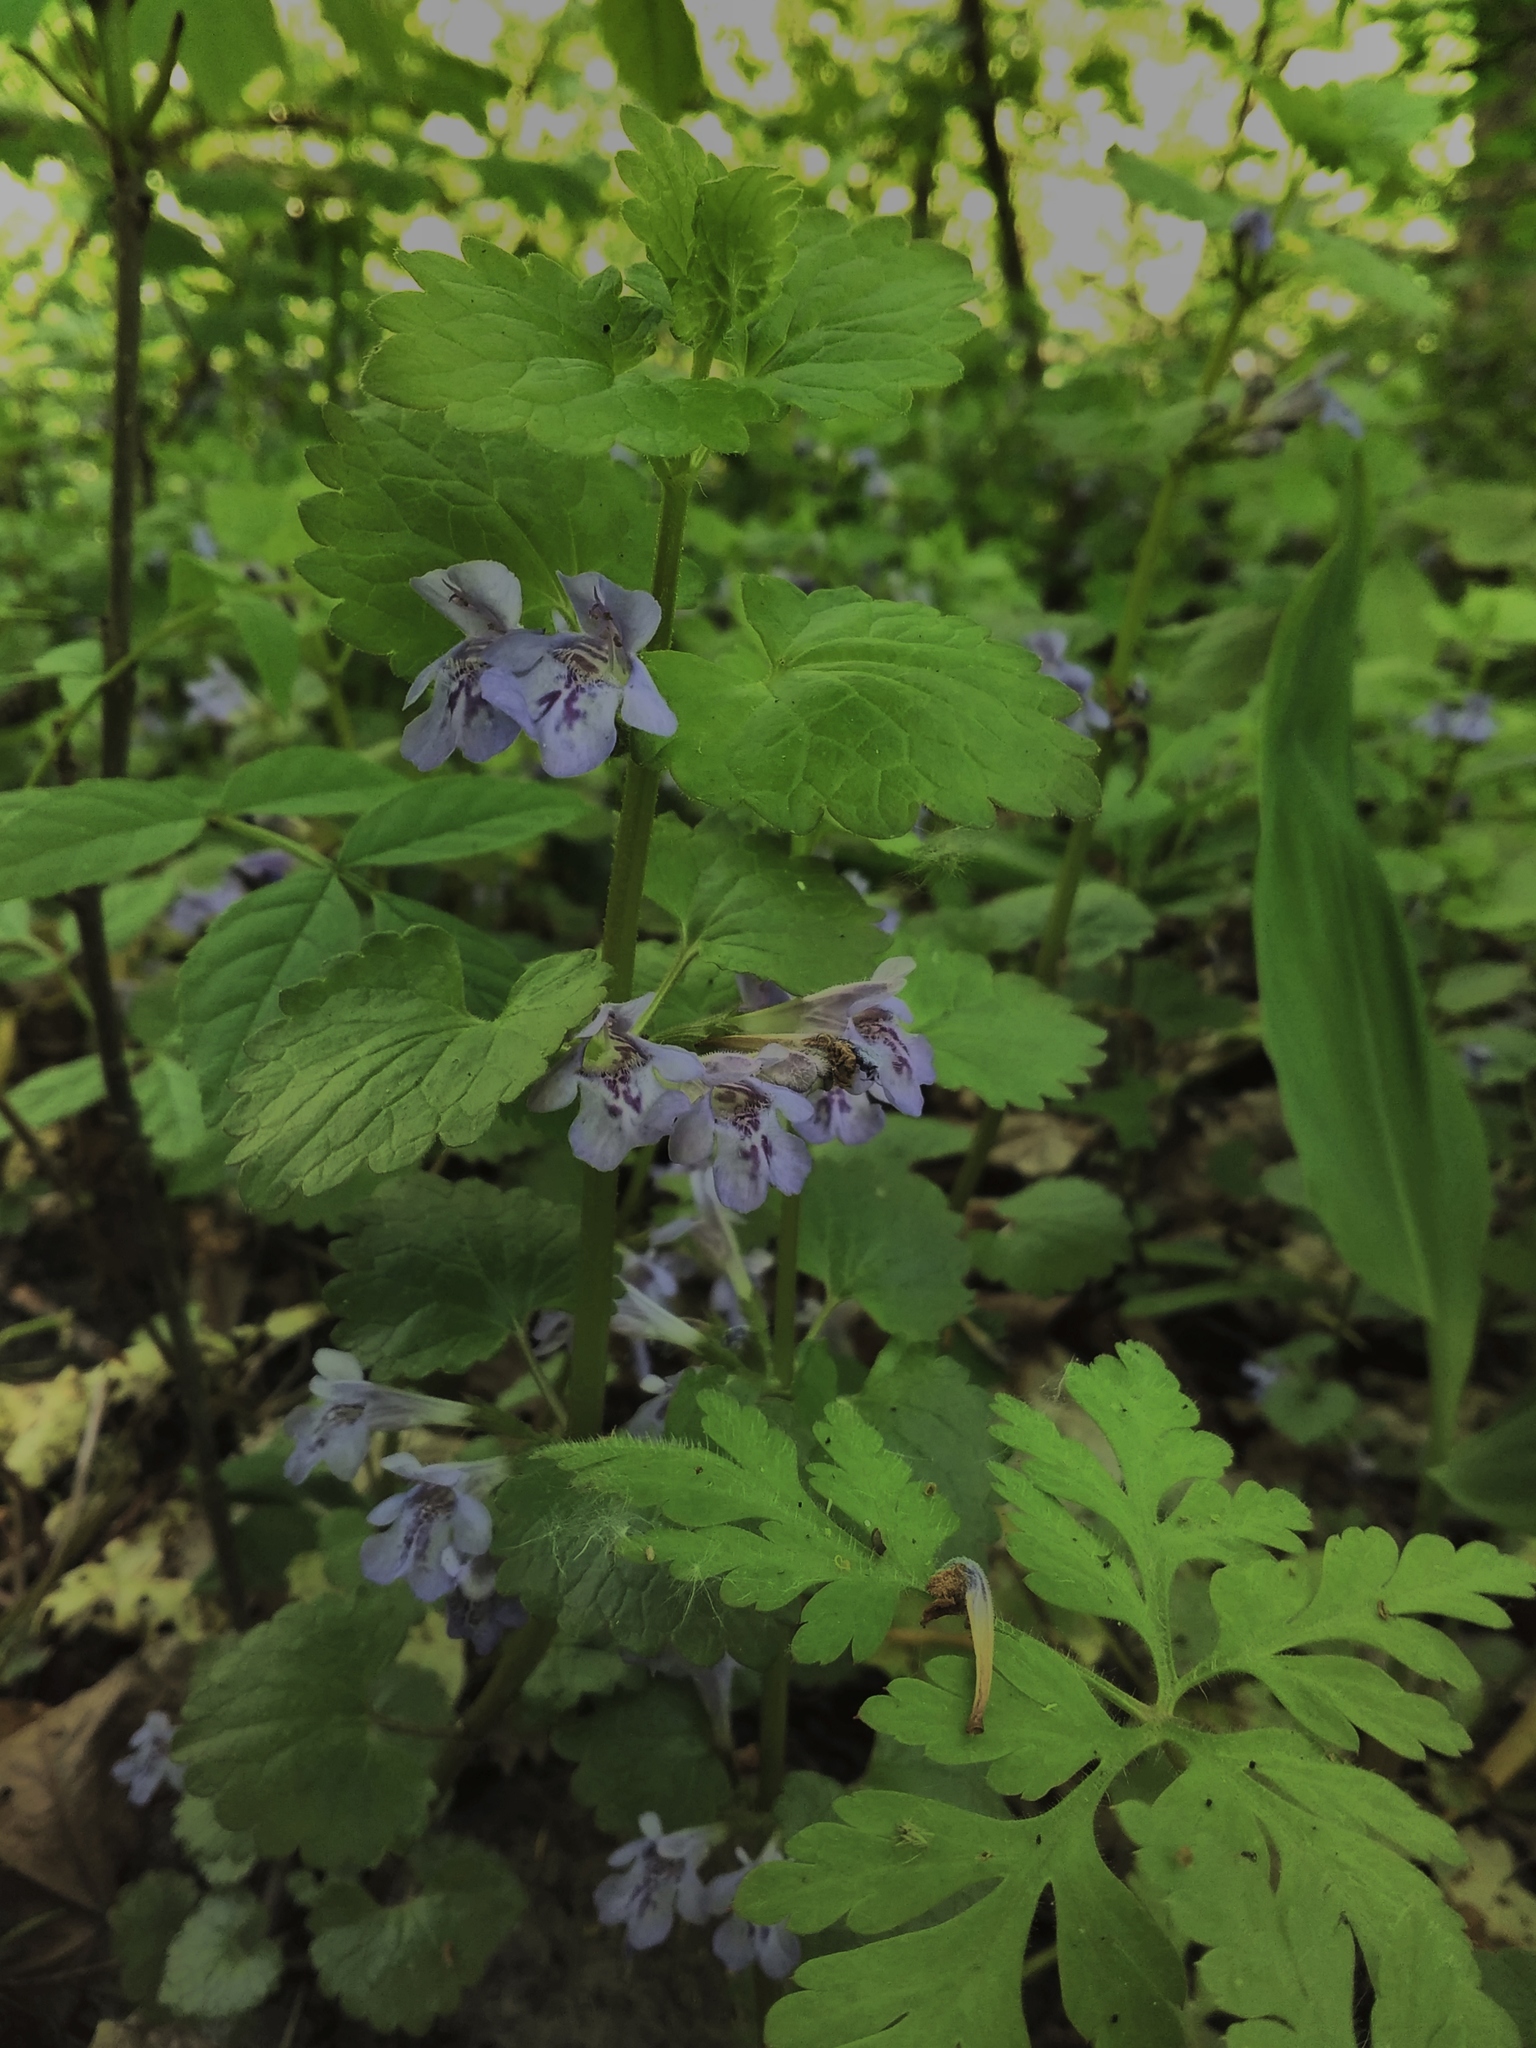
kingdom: Plantae
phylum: Tracheophyta
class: Magnoliopsida
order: Lamiales
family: Lamiaceae
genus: Glechoma
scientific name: Glechoma hederacea
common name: Ground ivy
